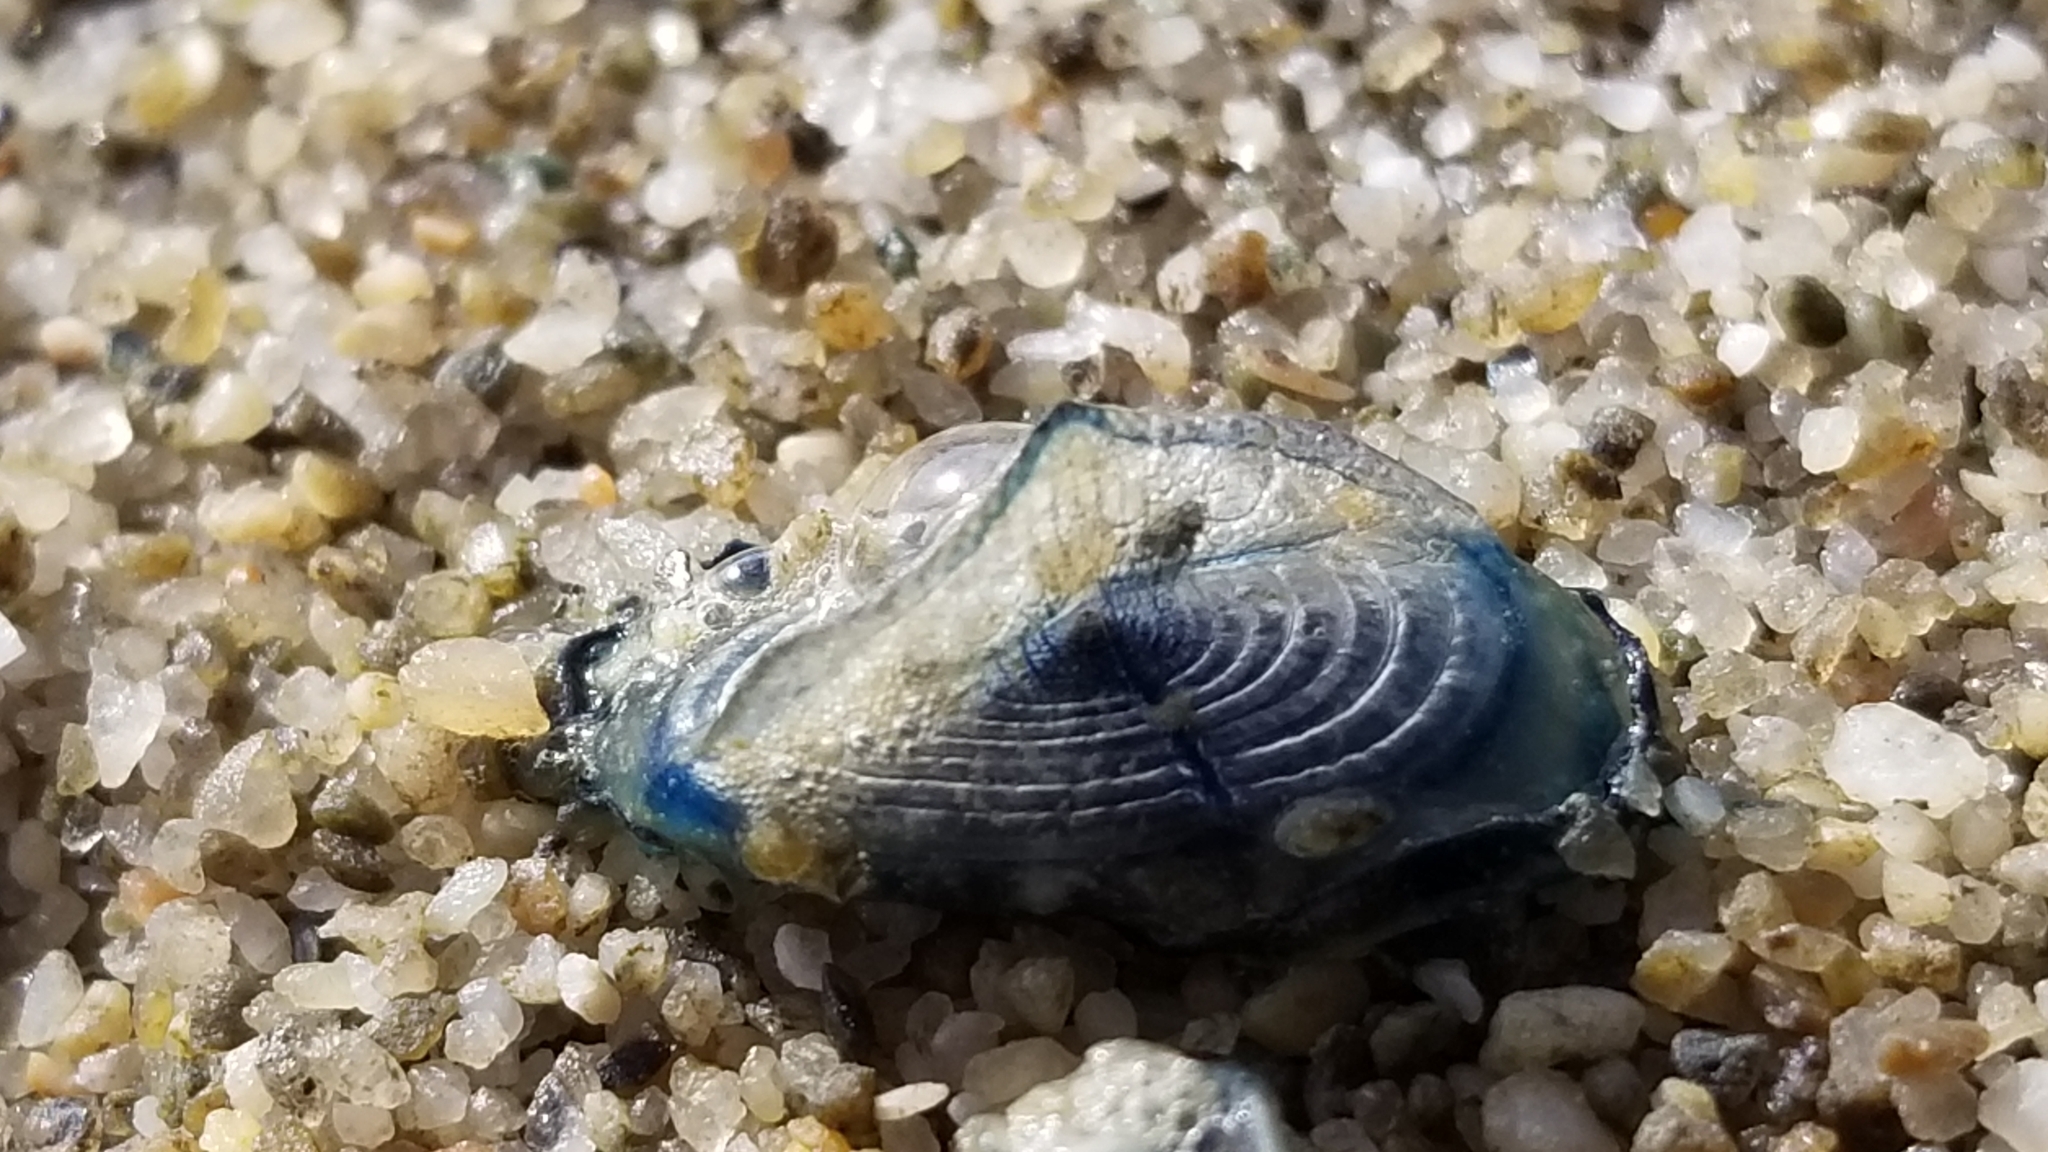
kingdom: Animalia
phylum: Cnidaria
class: Hydrozoa
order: Anthoathecata
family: Porpitidae
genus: Velella
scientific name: Velella velella
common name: By-the-wind-sailor
